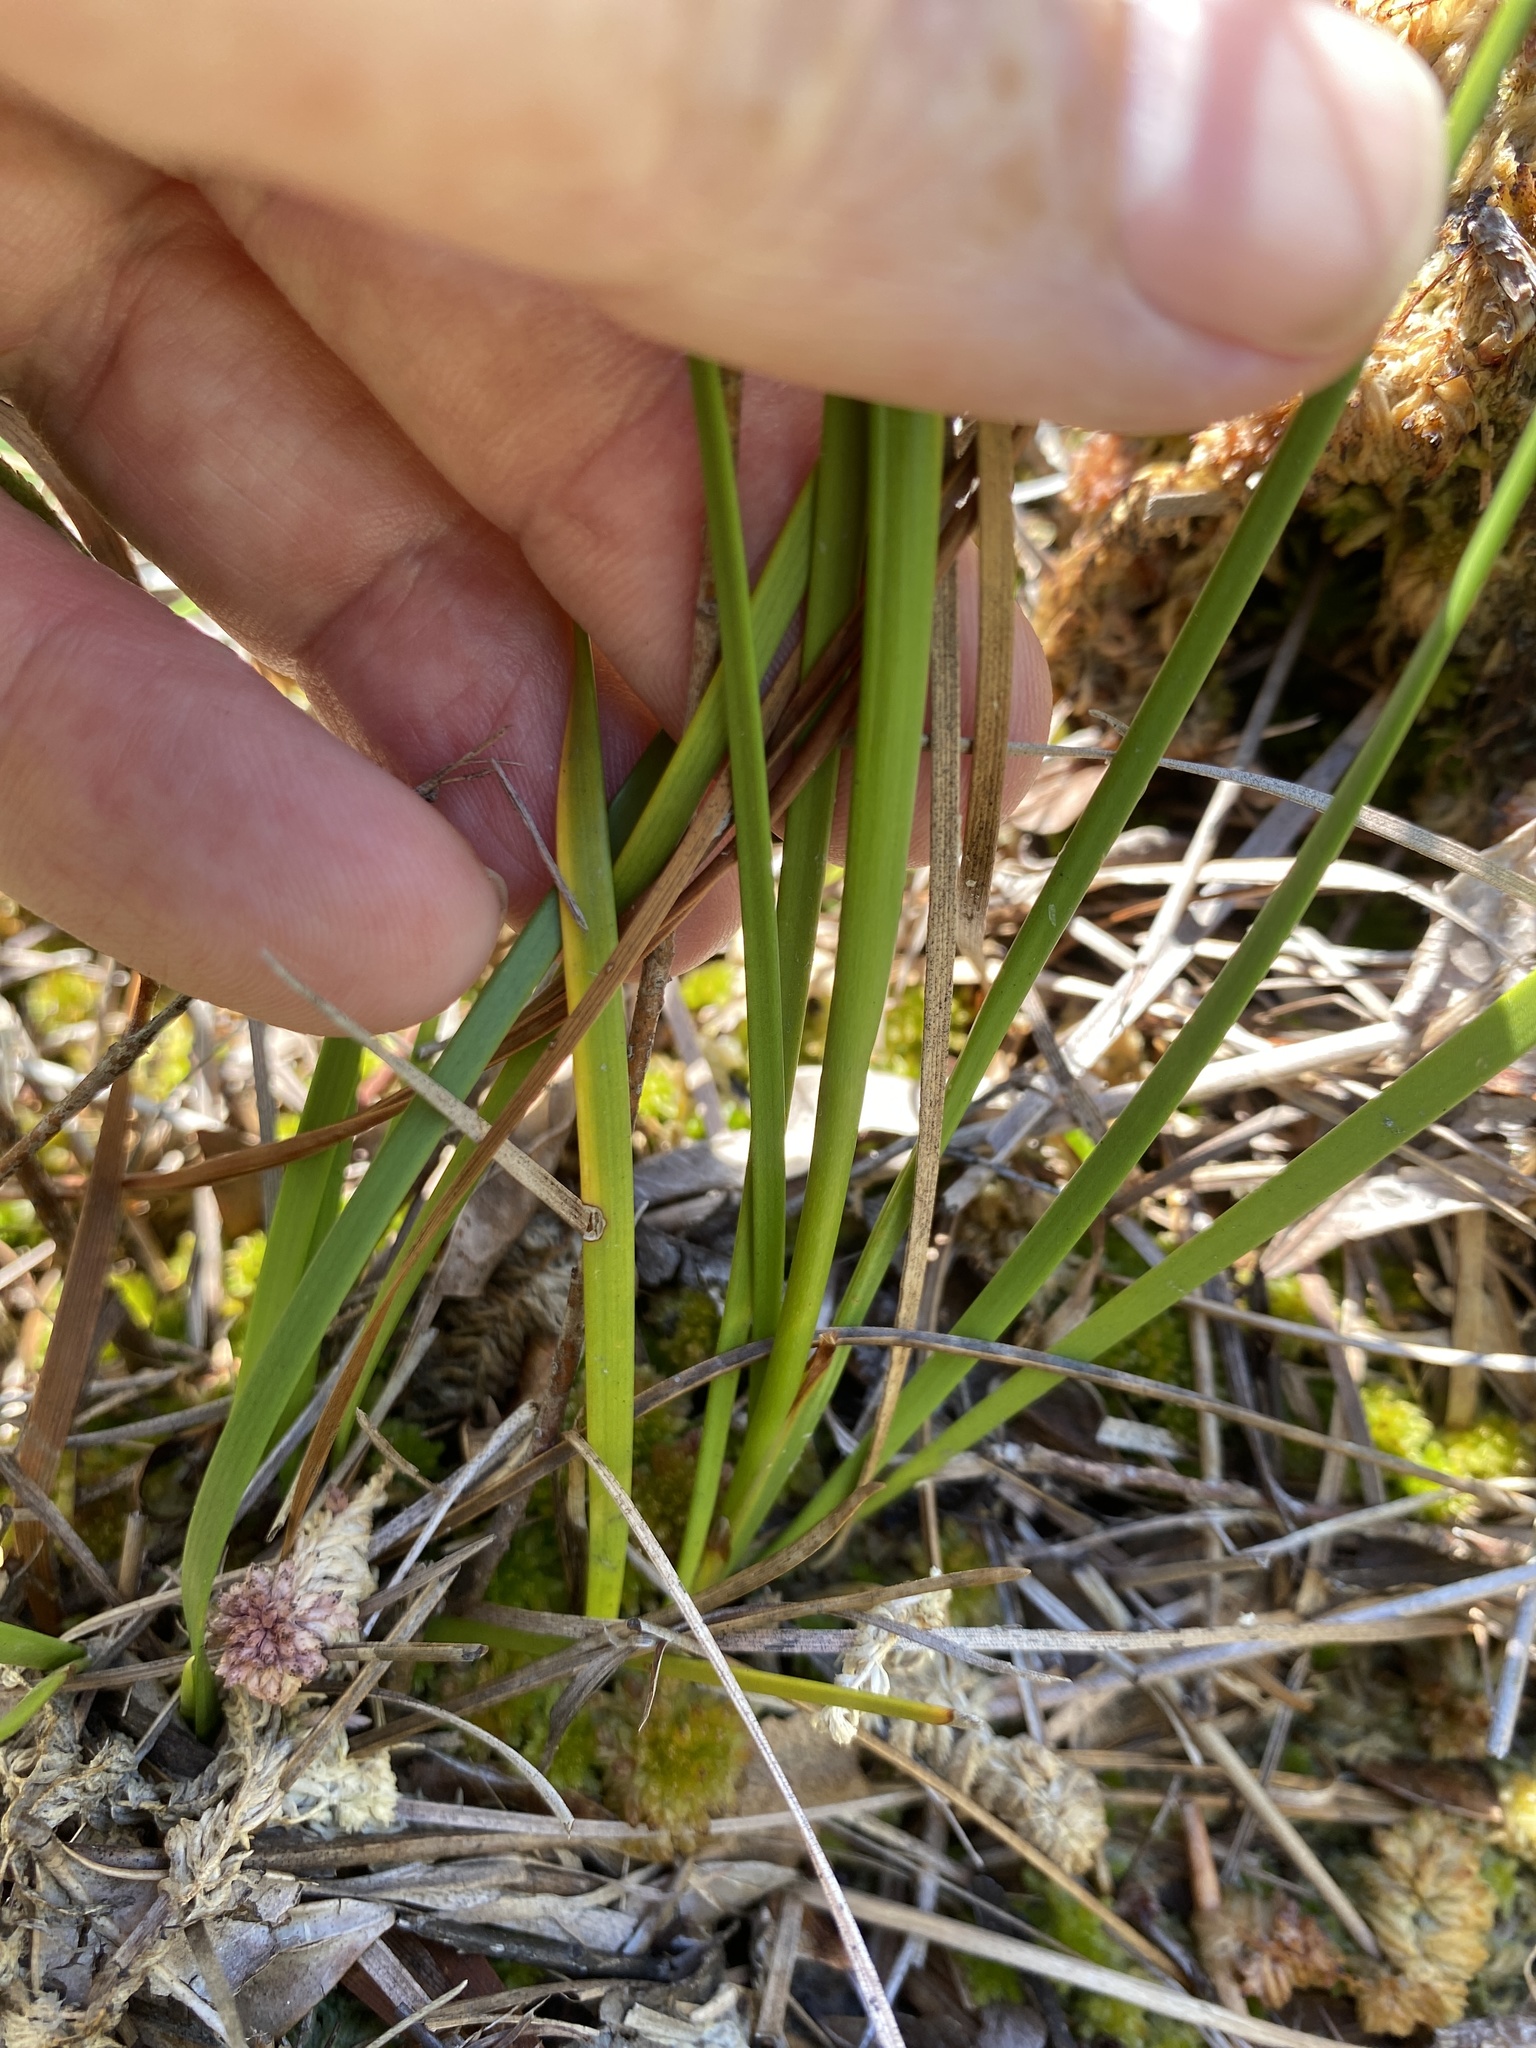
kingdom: Plantae
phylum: Tracheophyta
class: Liliopsida
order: Alismatales
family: Tofieldiaceae
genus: Pleea
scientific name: Pleea tenuifolia
